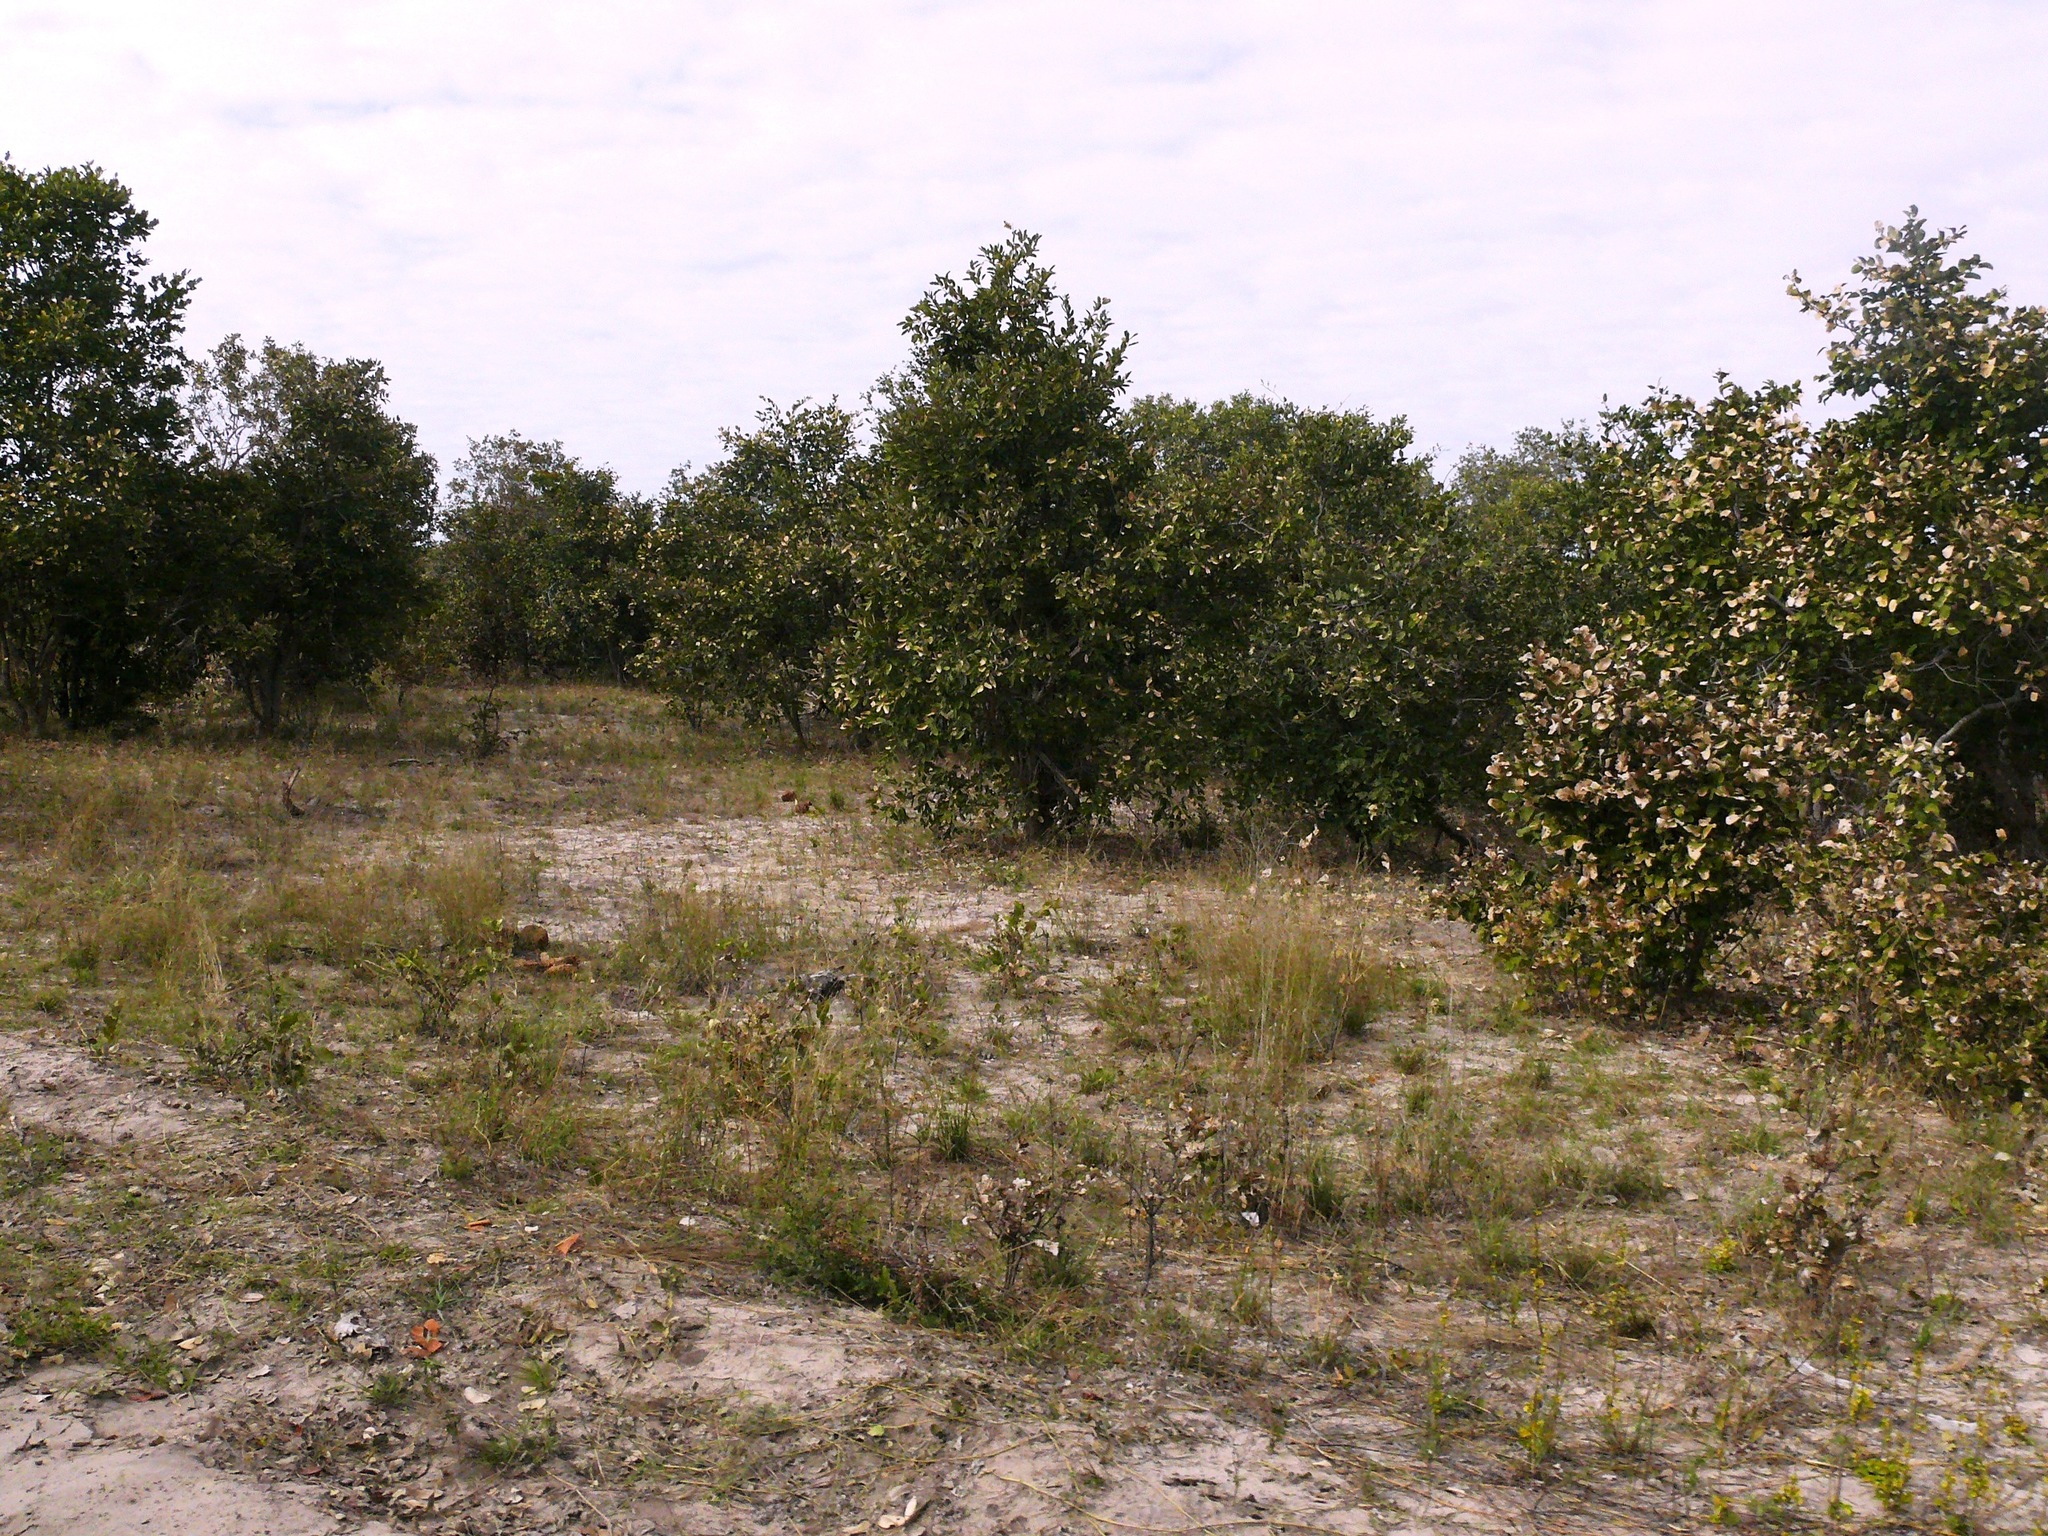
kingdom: Plantae
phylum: Tracheophyta
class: Magnoliopsida
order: Fabales
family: Fabaceae
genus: Philenoptera
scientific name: Philenoptera nelsii
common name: Kalahari apple-leaf
